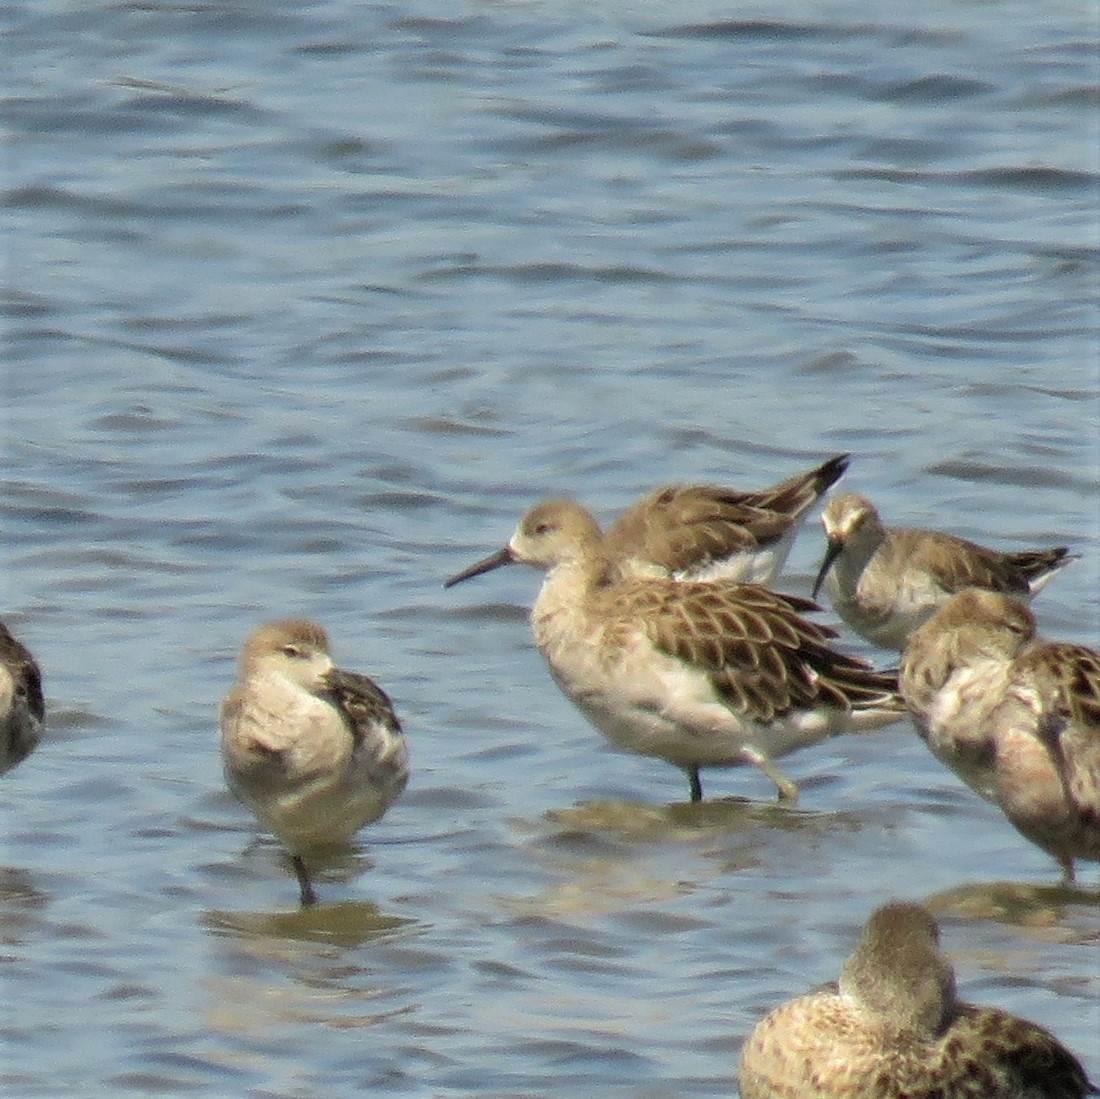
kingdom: Animalia
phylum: Chordata
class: Aves
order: Charadriiformes
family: Scolopacidae
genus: Calidris
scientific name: Calidris pugnax
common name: Ruff
